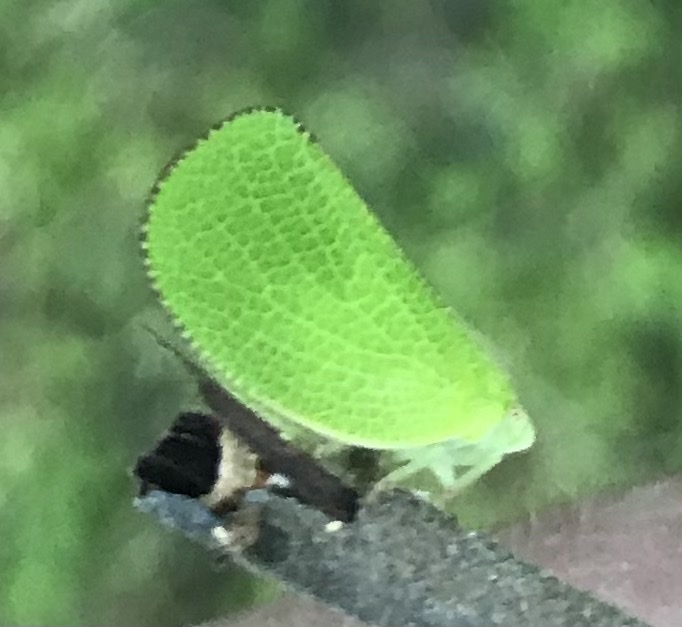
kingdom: Animalia
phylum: Arthropoda
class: Insecta
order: Hemiptera
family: Acanaloniidae
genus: Acanalonia
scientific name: Acanalonia conica
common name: Green cone-headed planthopper
